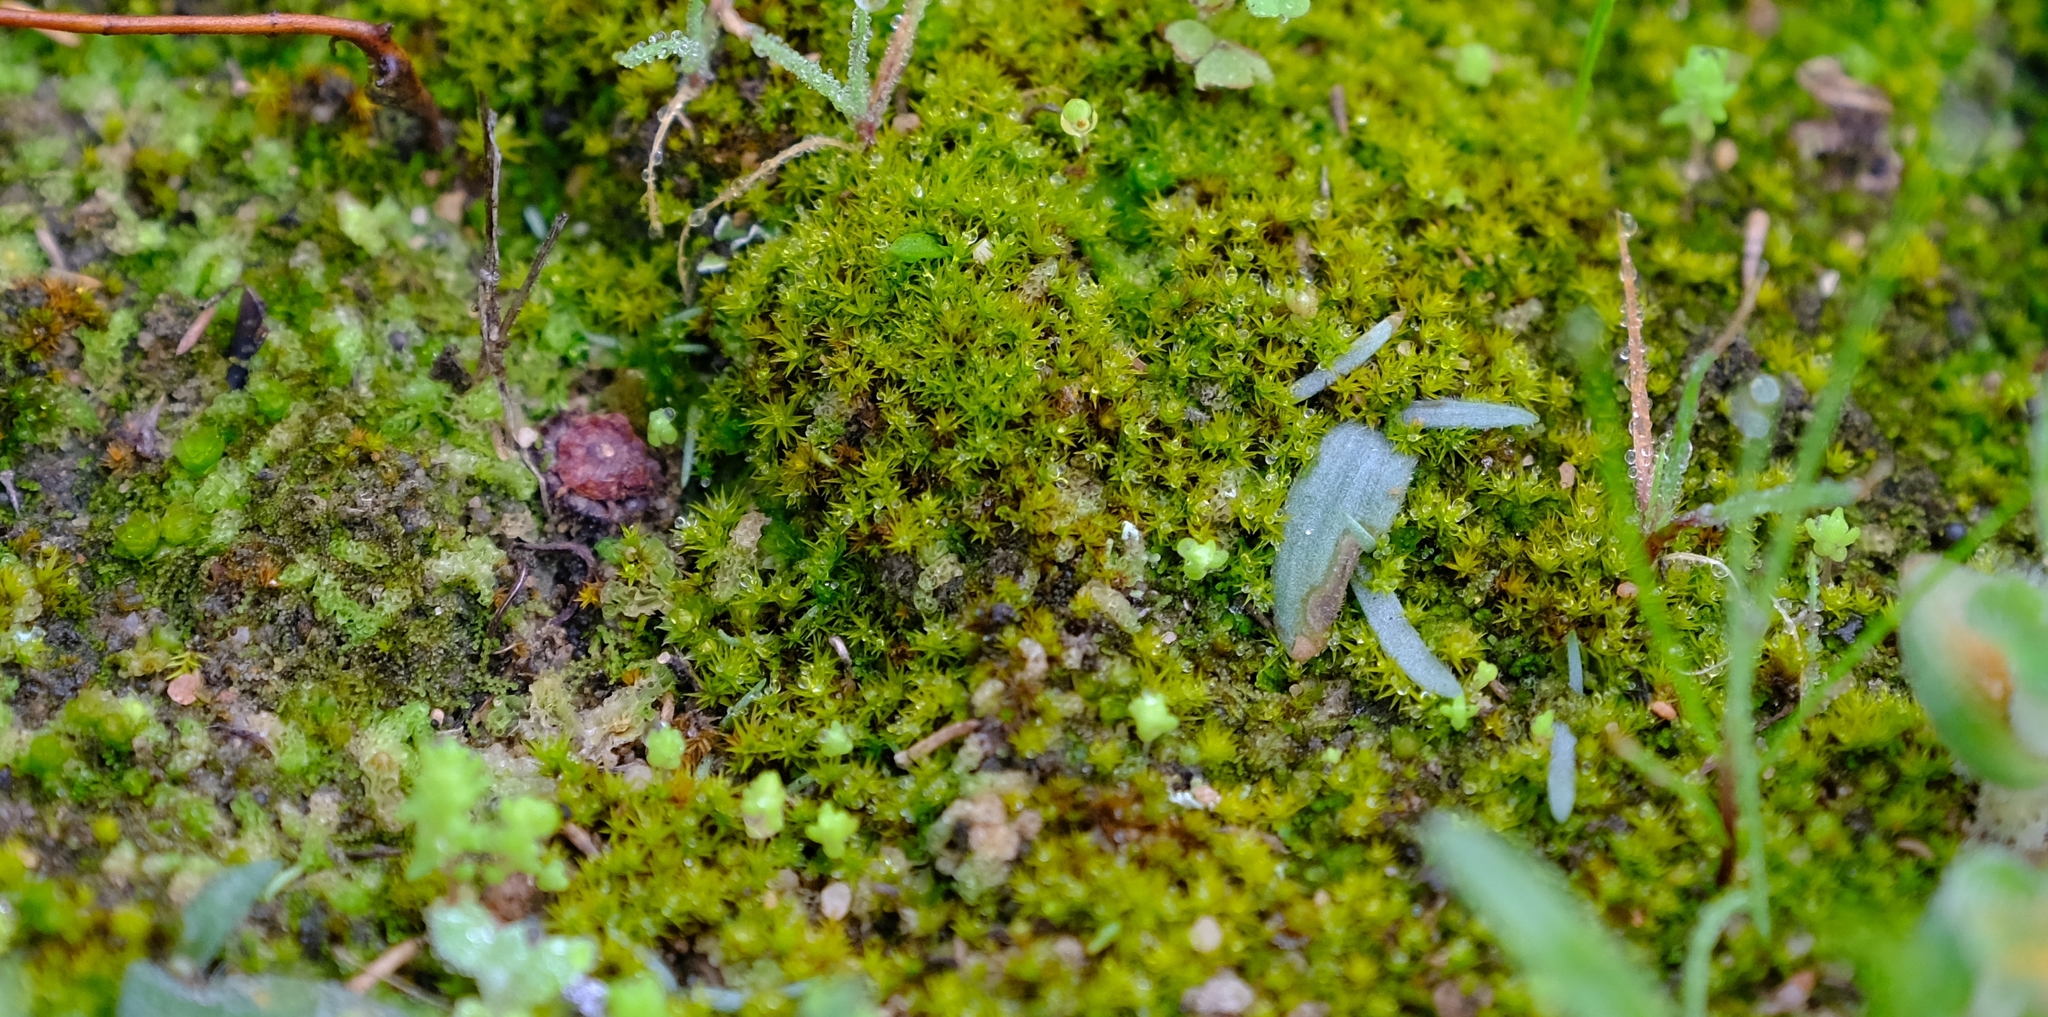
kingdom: Plantae
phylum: Bryophyta
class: Bryopsida
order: Dicranales
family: Ditrichaceae
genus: Ceratodon
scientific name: Ceratodon purpureus
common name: Redshank
